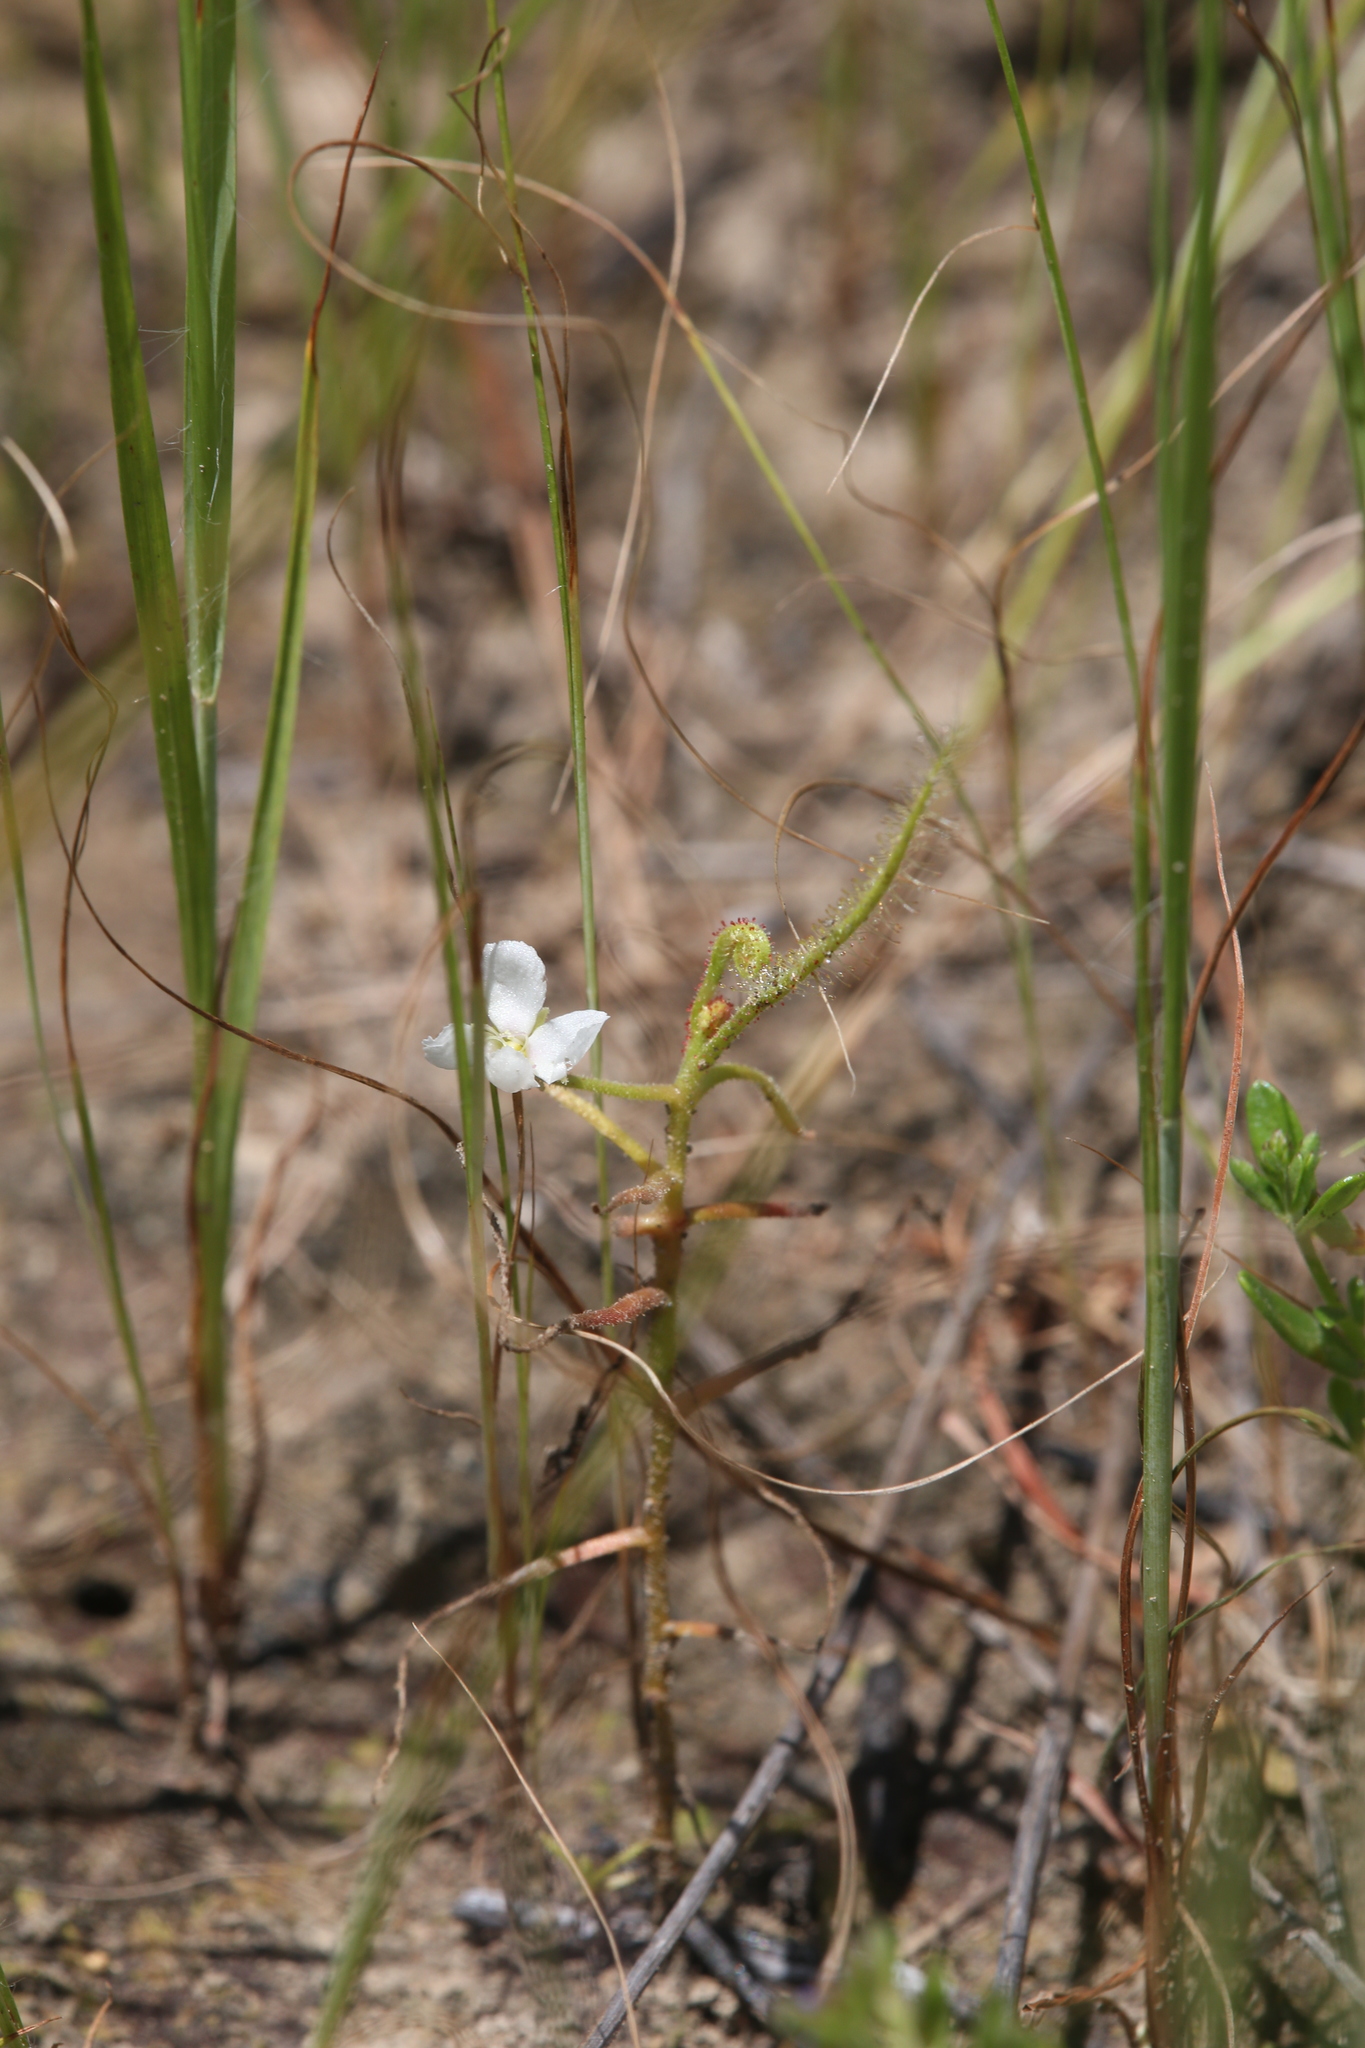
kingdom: Plantae
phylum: Tracheophyta
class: Magnoliopsida
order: Caryophyllales
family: Droseraceae
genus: Drosera
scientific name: Drosera indica
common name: Indian sundew
